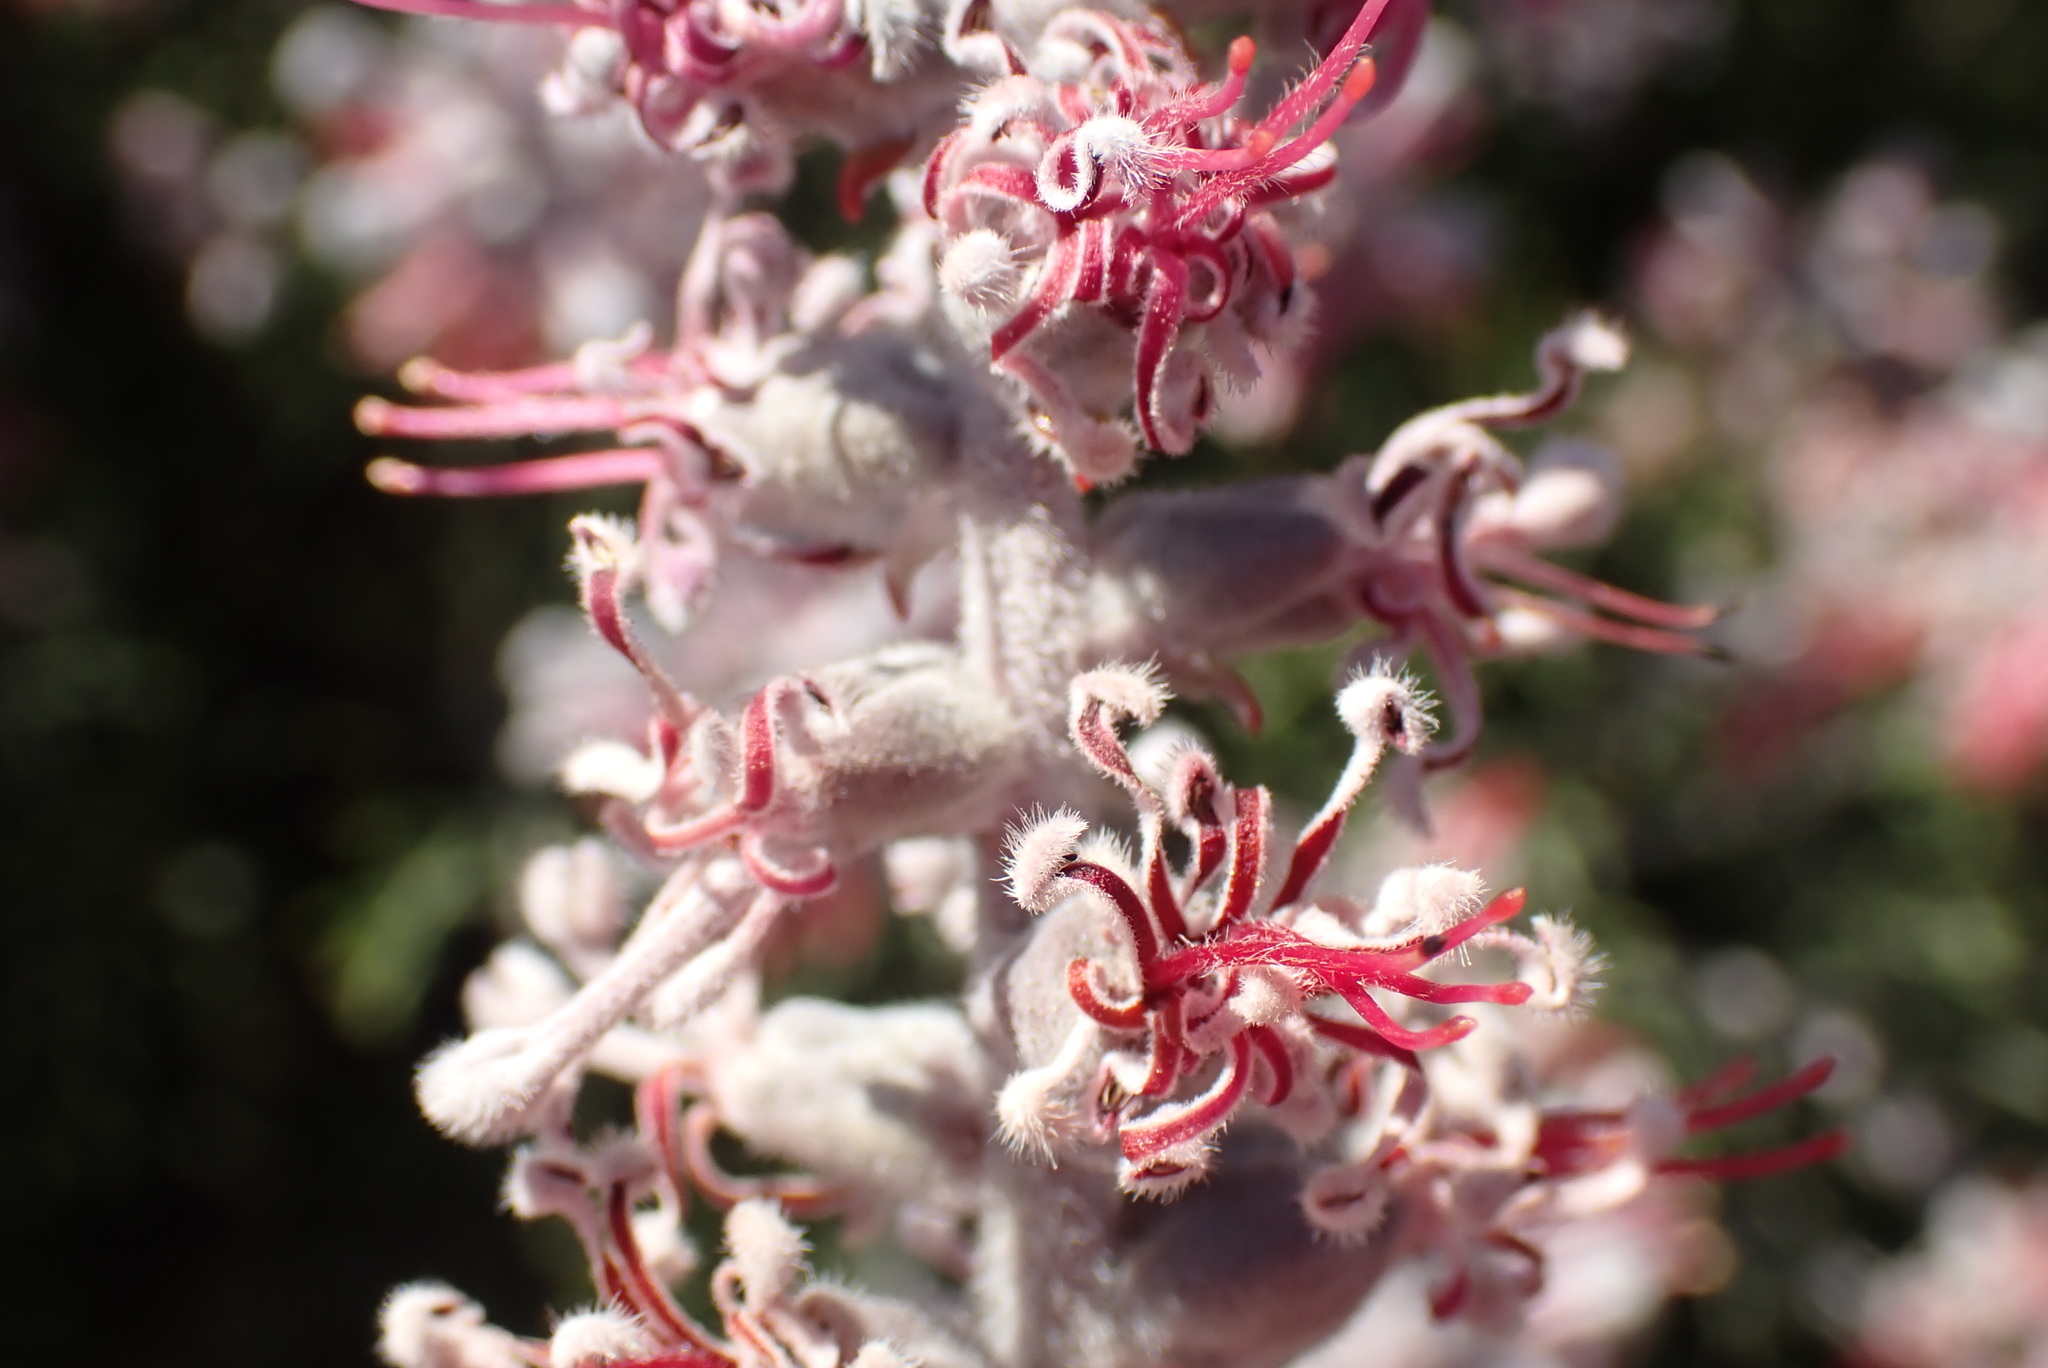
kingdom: Plantae
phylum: Tracheophyta
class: Magnoliopsida
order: Proteales
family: Proteaceae
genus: Paranomus
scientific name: Paranomus dispersus
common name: Long-head sceptre
